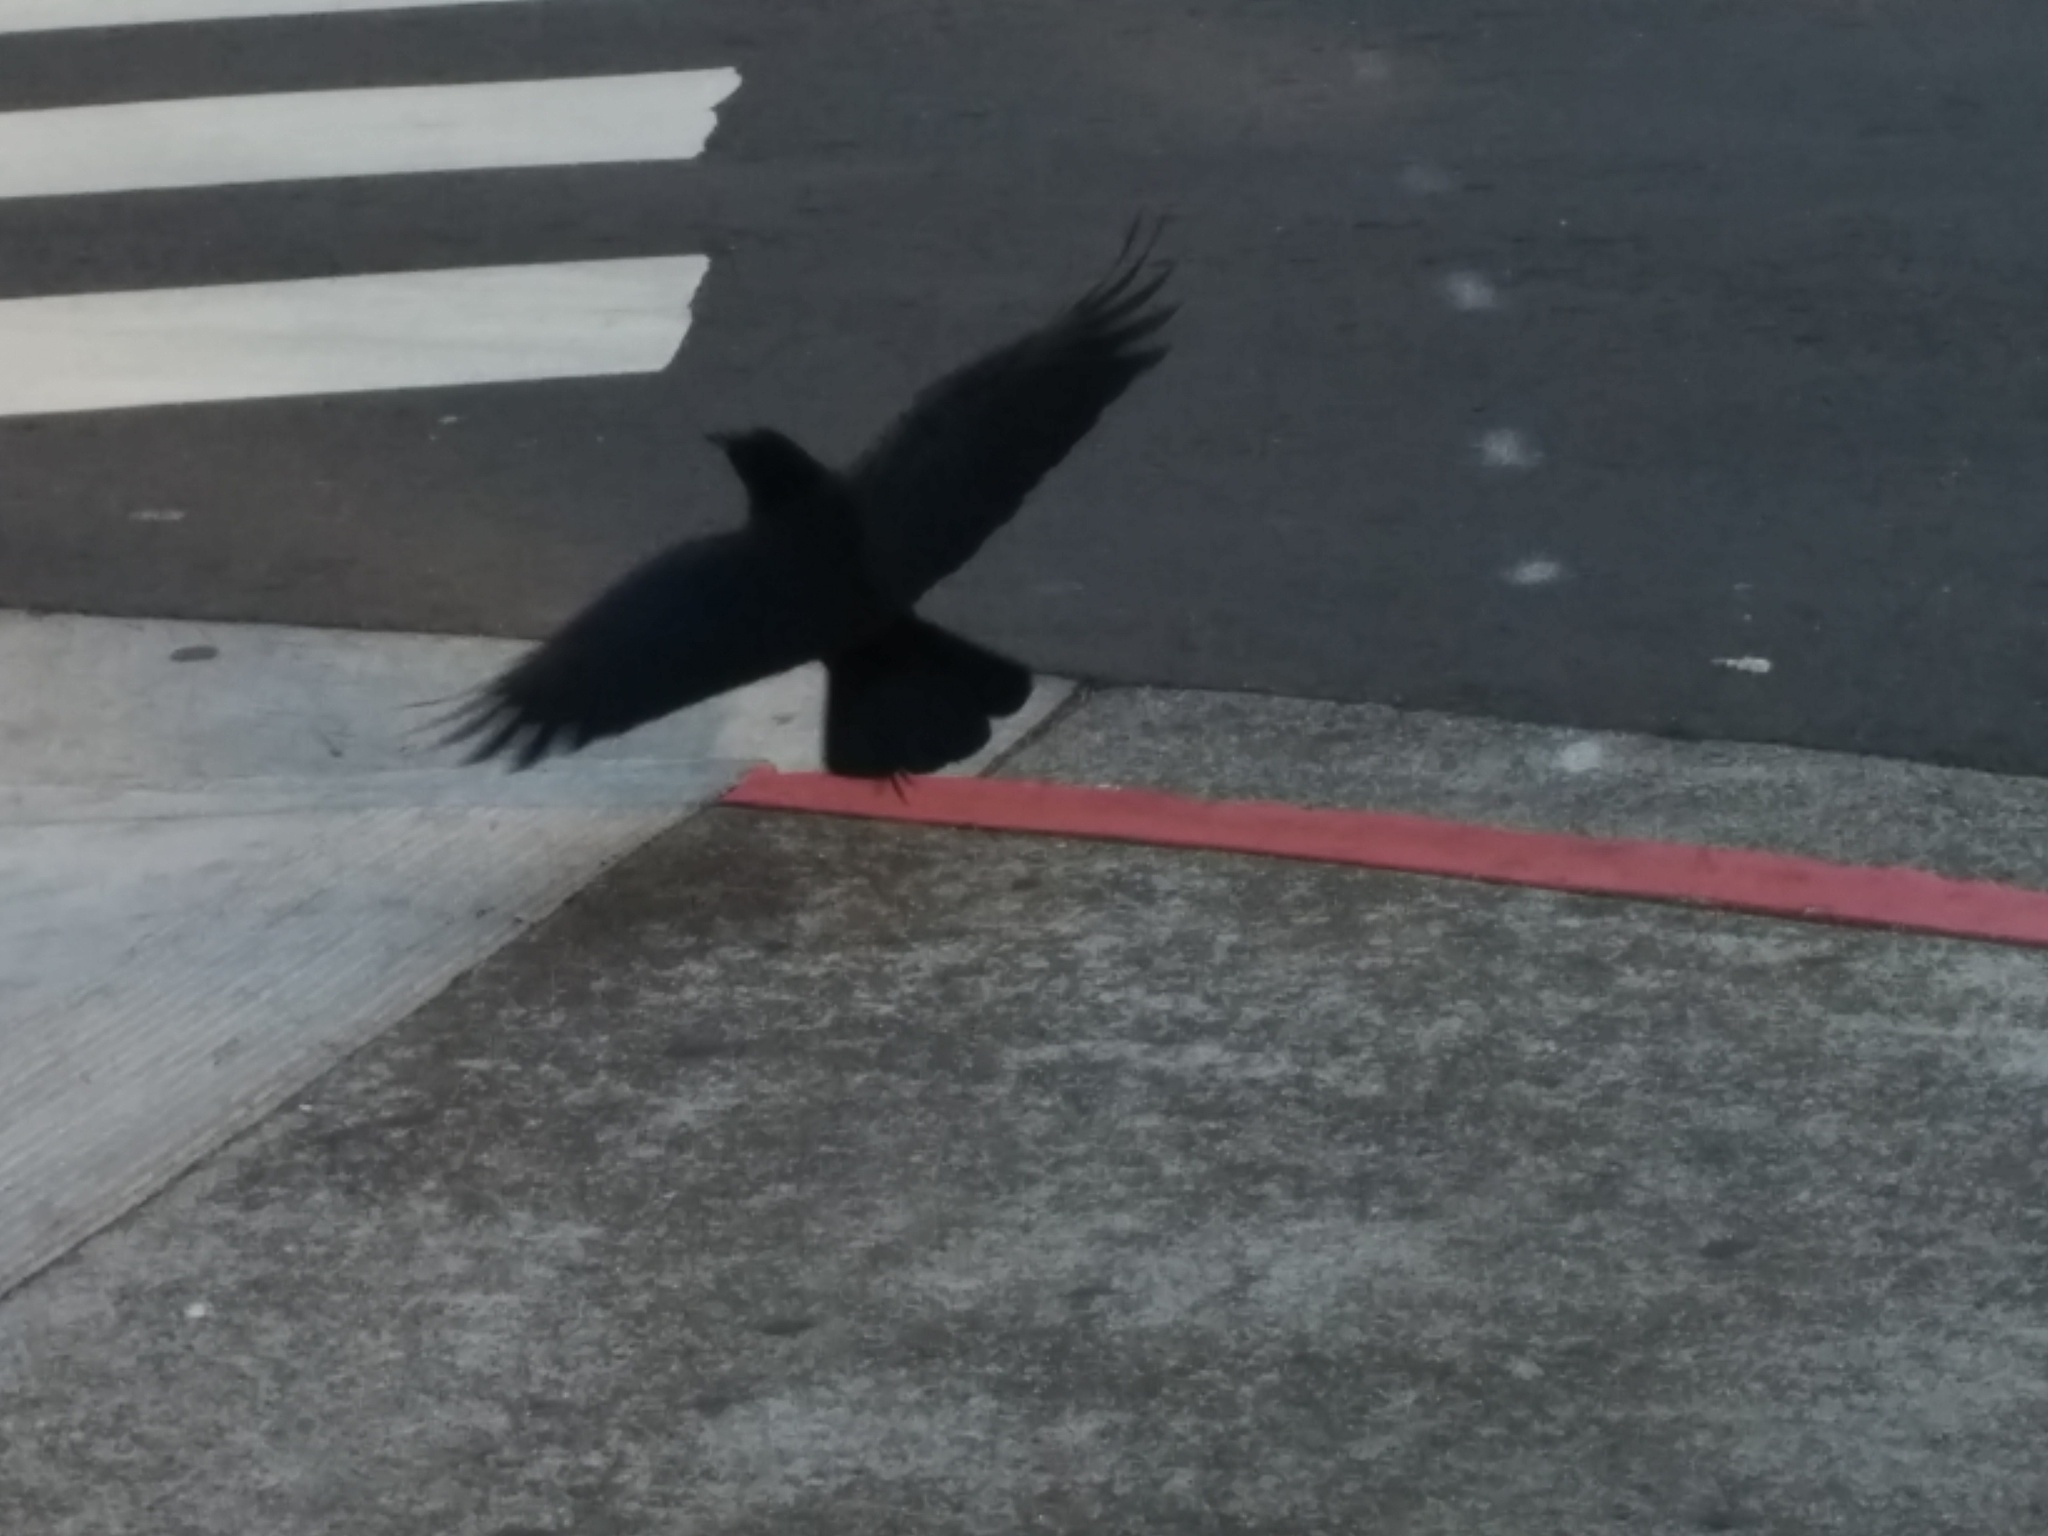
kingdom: Animalia
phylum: Chordata
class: Aves
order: Passeriformes
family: Corvidae
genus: Corvus
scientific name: Corvus brachyrhynchos
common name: American crow
